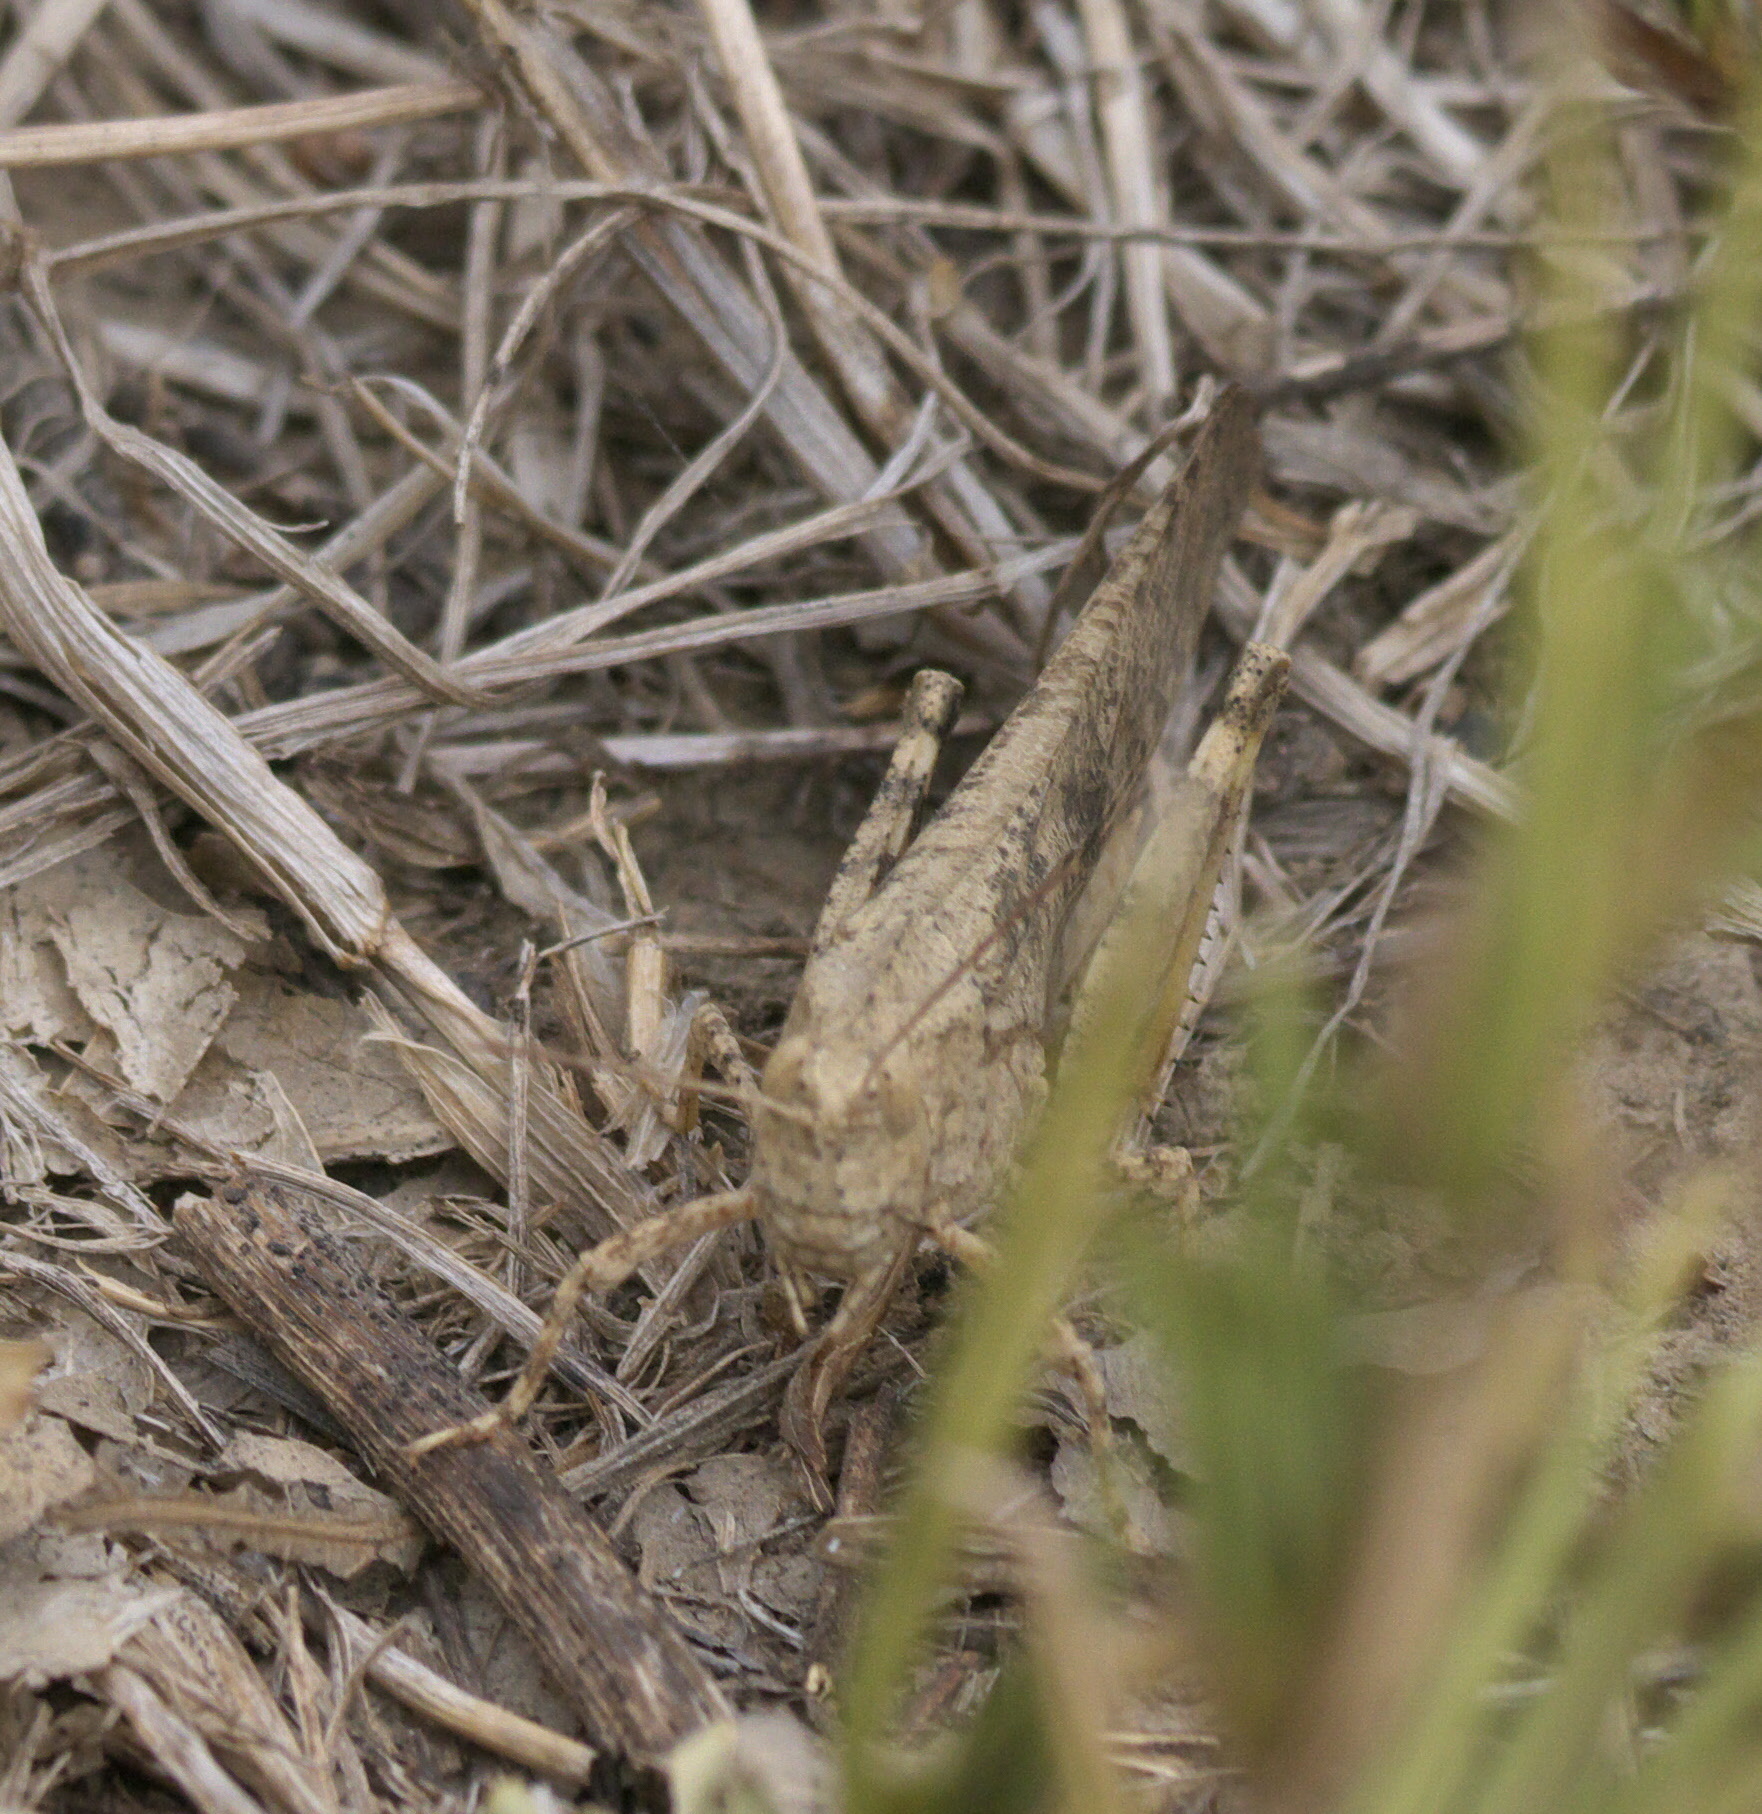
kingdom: Animalia
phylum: Arthropoda
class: Insecta
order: Orthoptera
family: Acrididae
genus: Dissosteira
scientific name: Dissosteira carolina
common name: Carolina grasshopper
